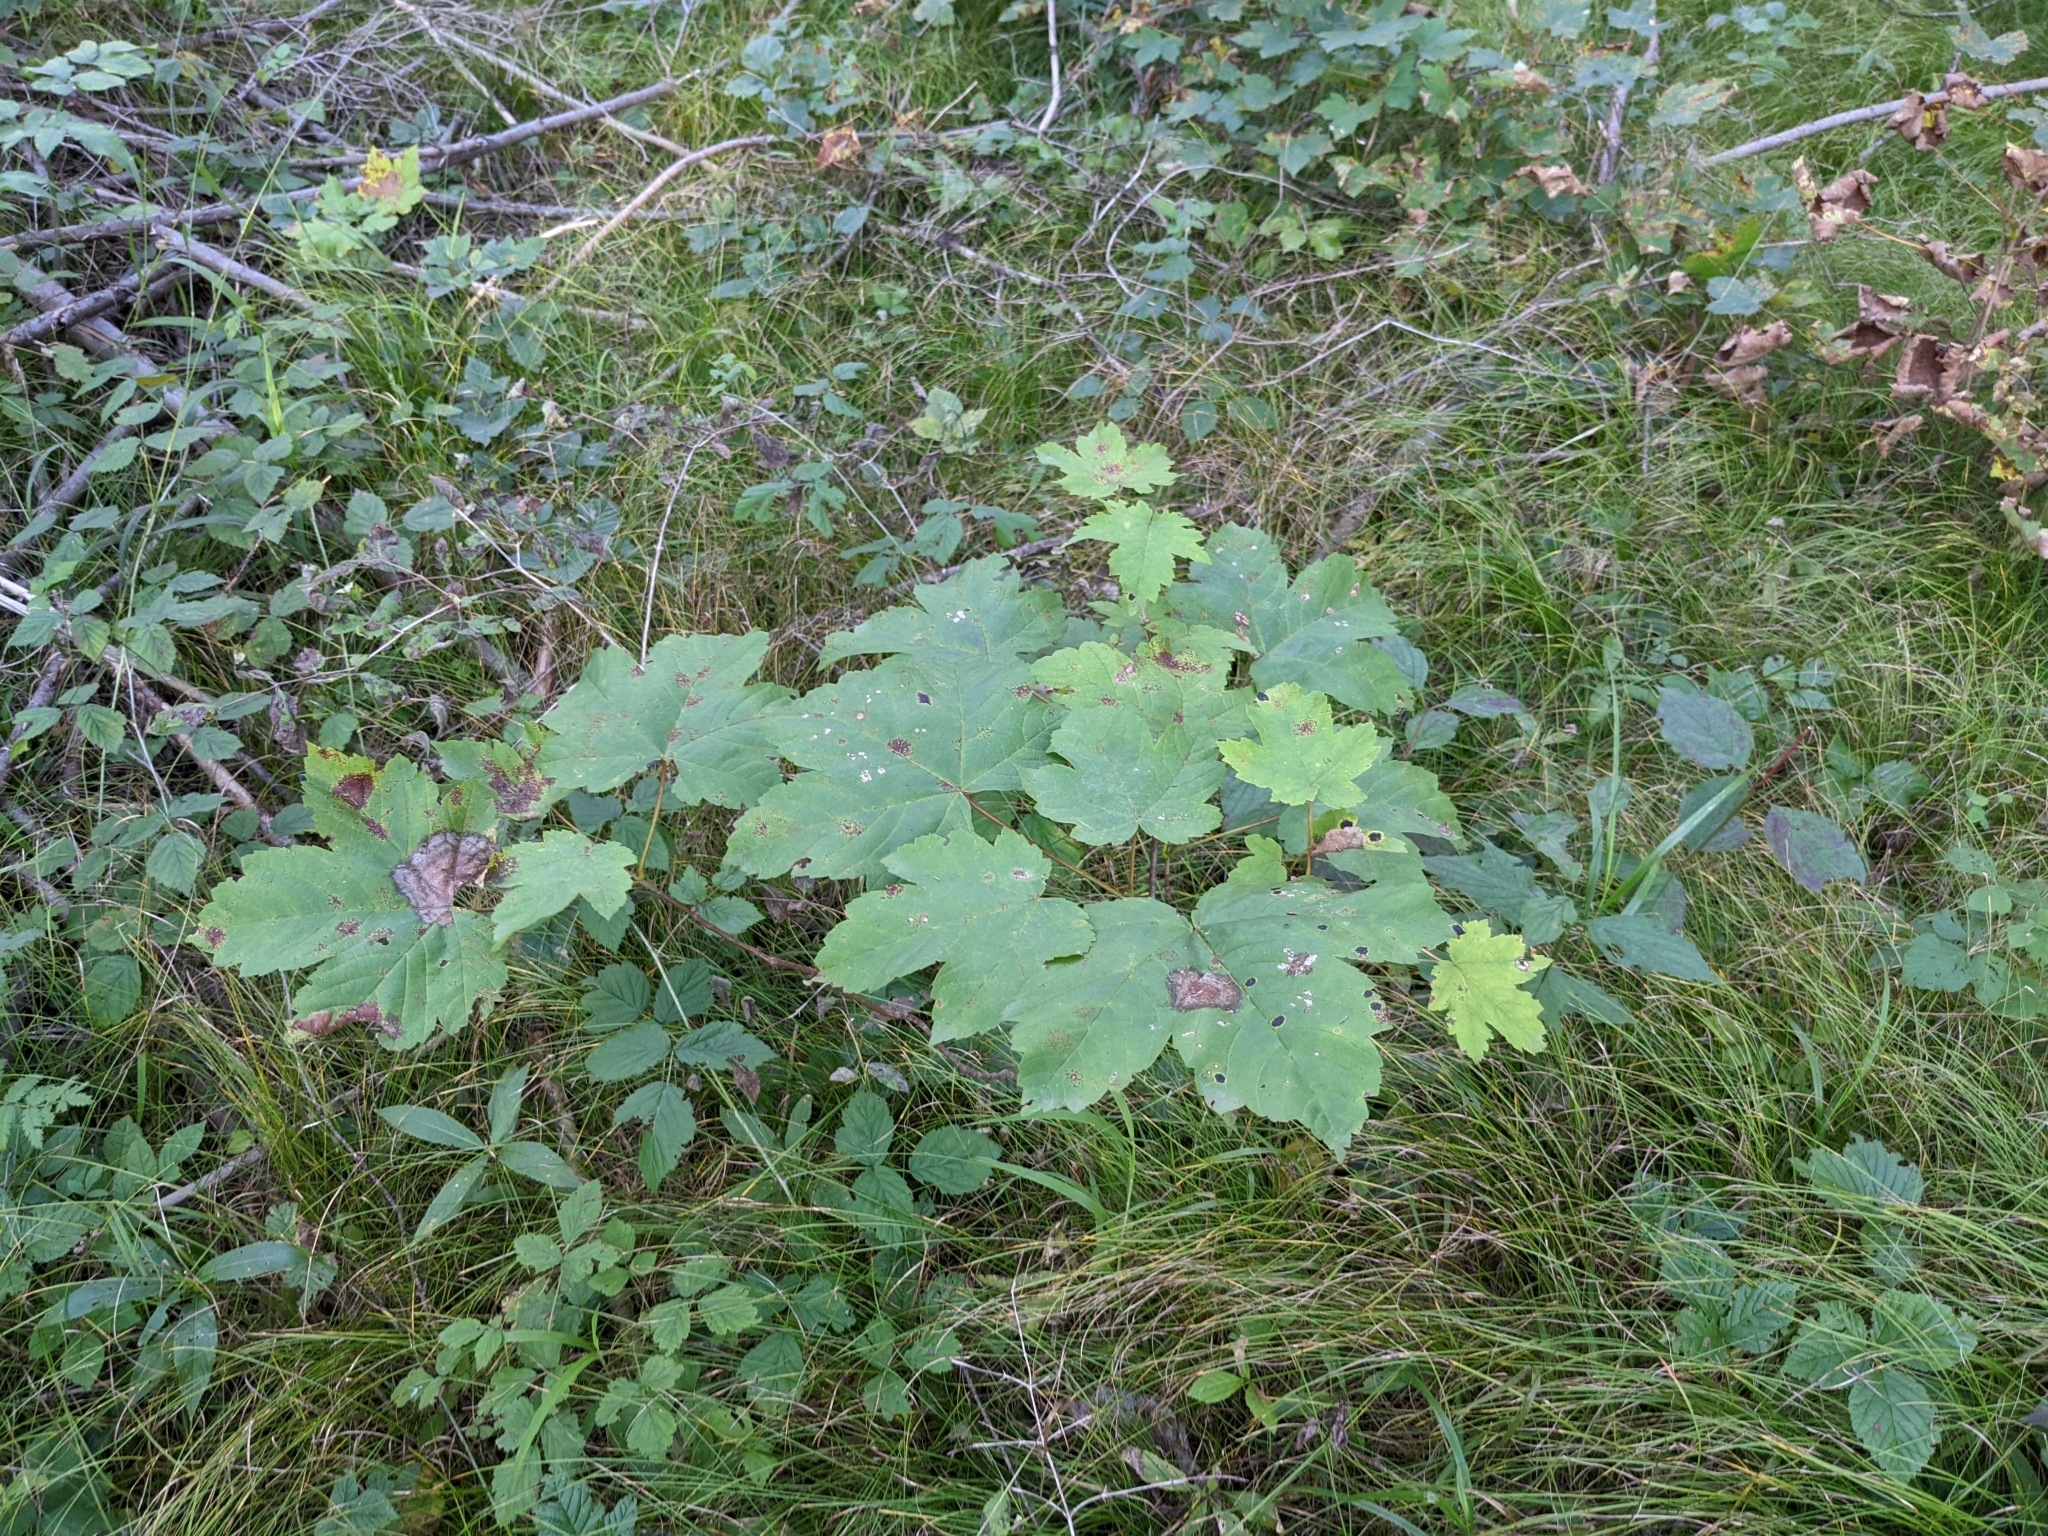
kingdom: Plantae
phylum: Tracheophyta
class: Magnoliopsida
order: Sapindales
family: Sapindaceae
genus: Acer
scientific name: Acer pseudoplatanus
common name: Sycamore
